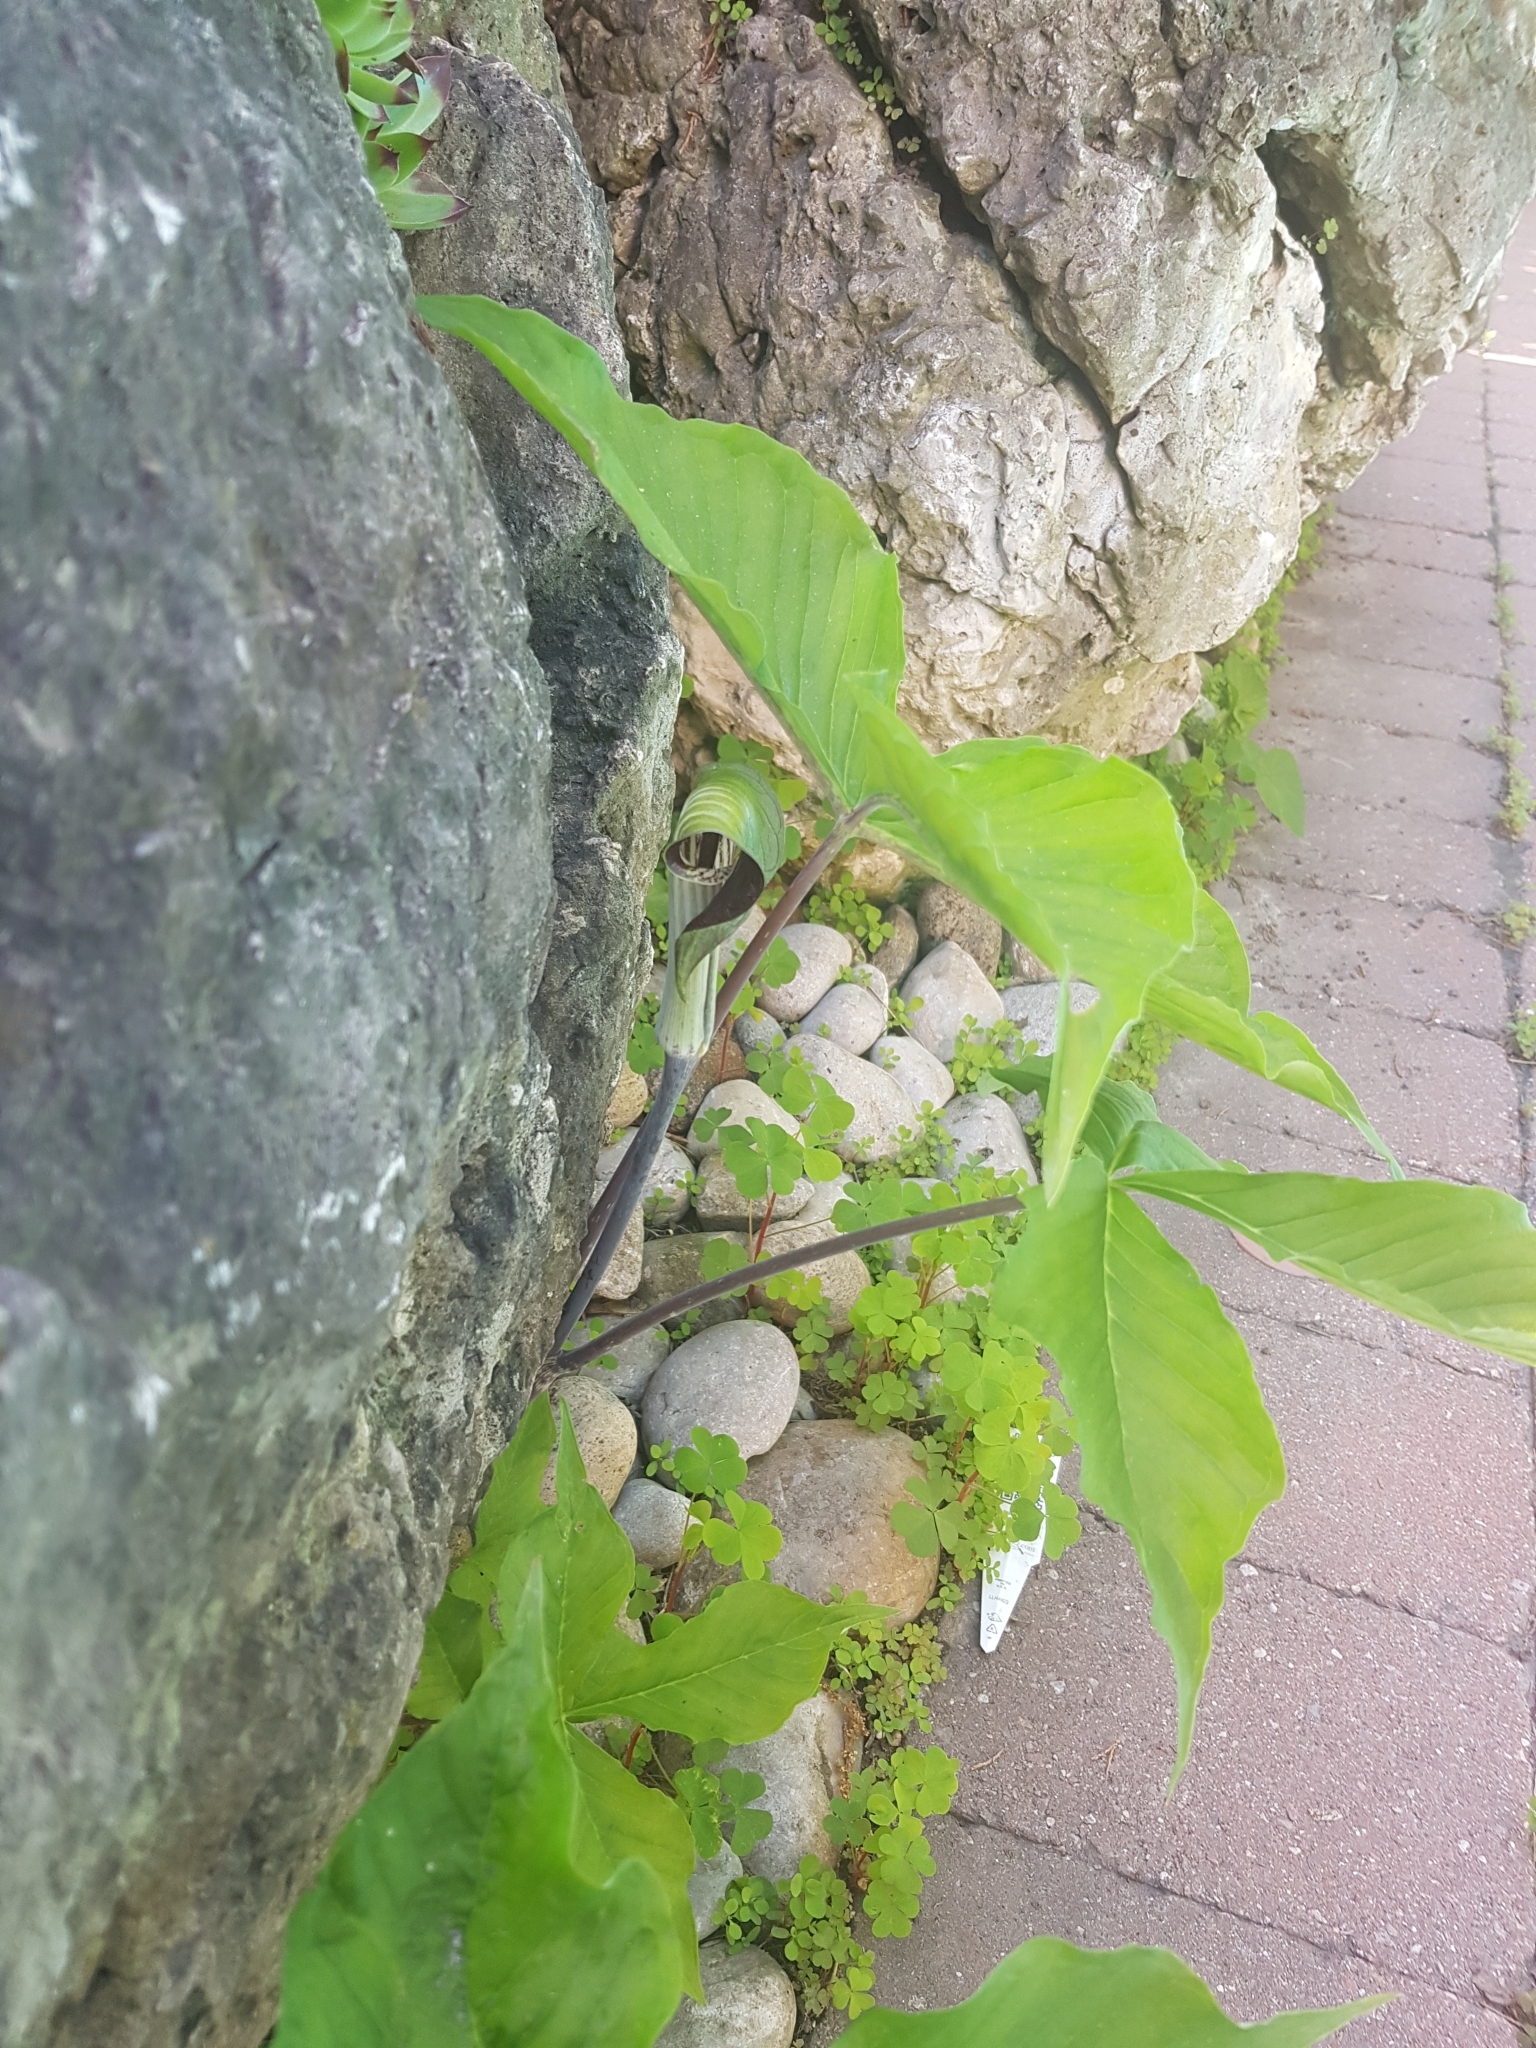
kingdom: Plantae
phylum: Tracheophyta
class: Liliopsida
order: Alismatales
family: Araceae
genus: Arisaema
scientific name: Arisaema triphyllum
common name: Jack-in-the-pulpit
